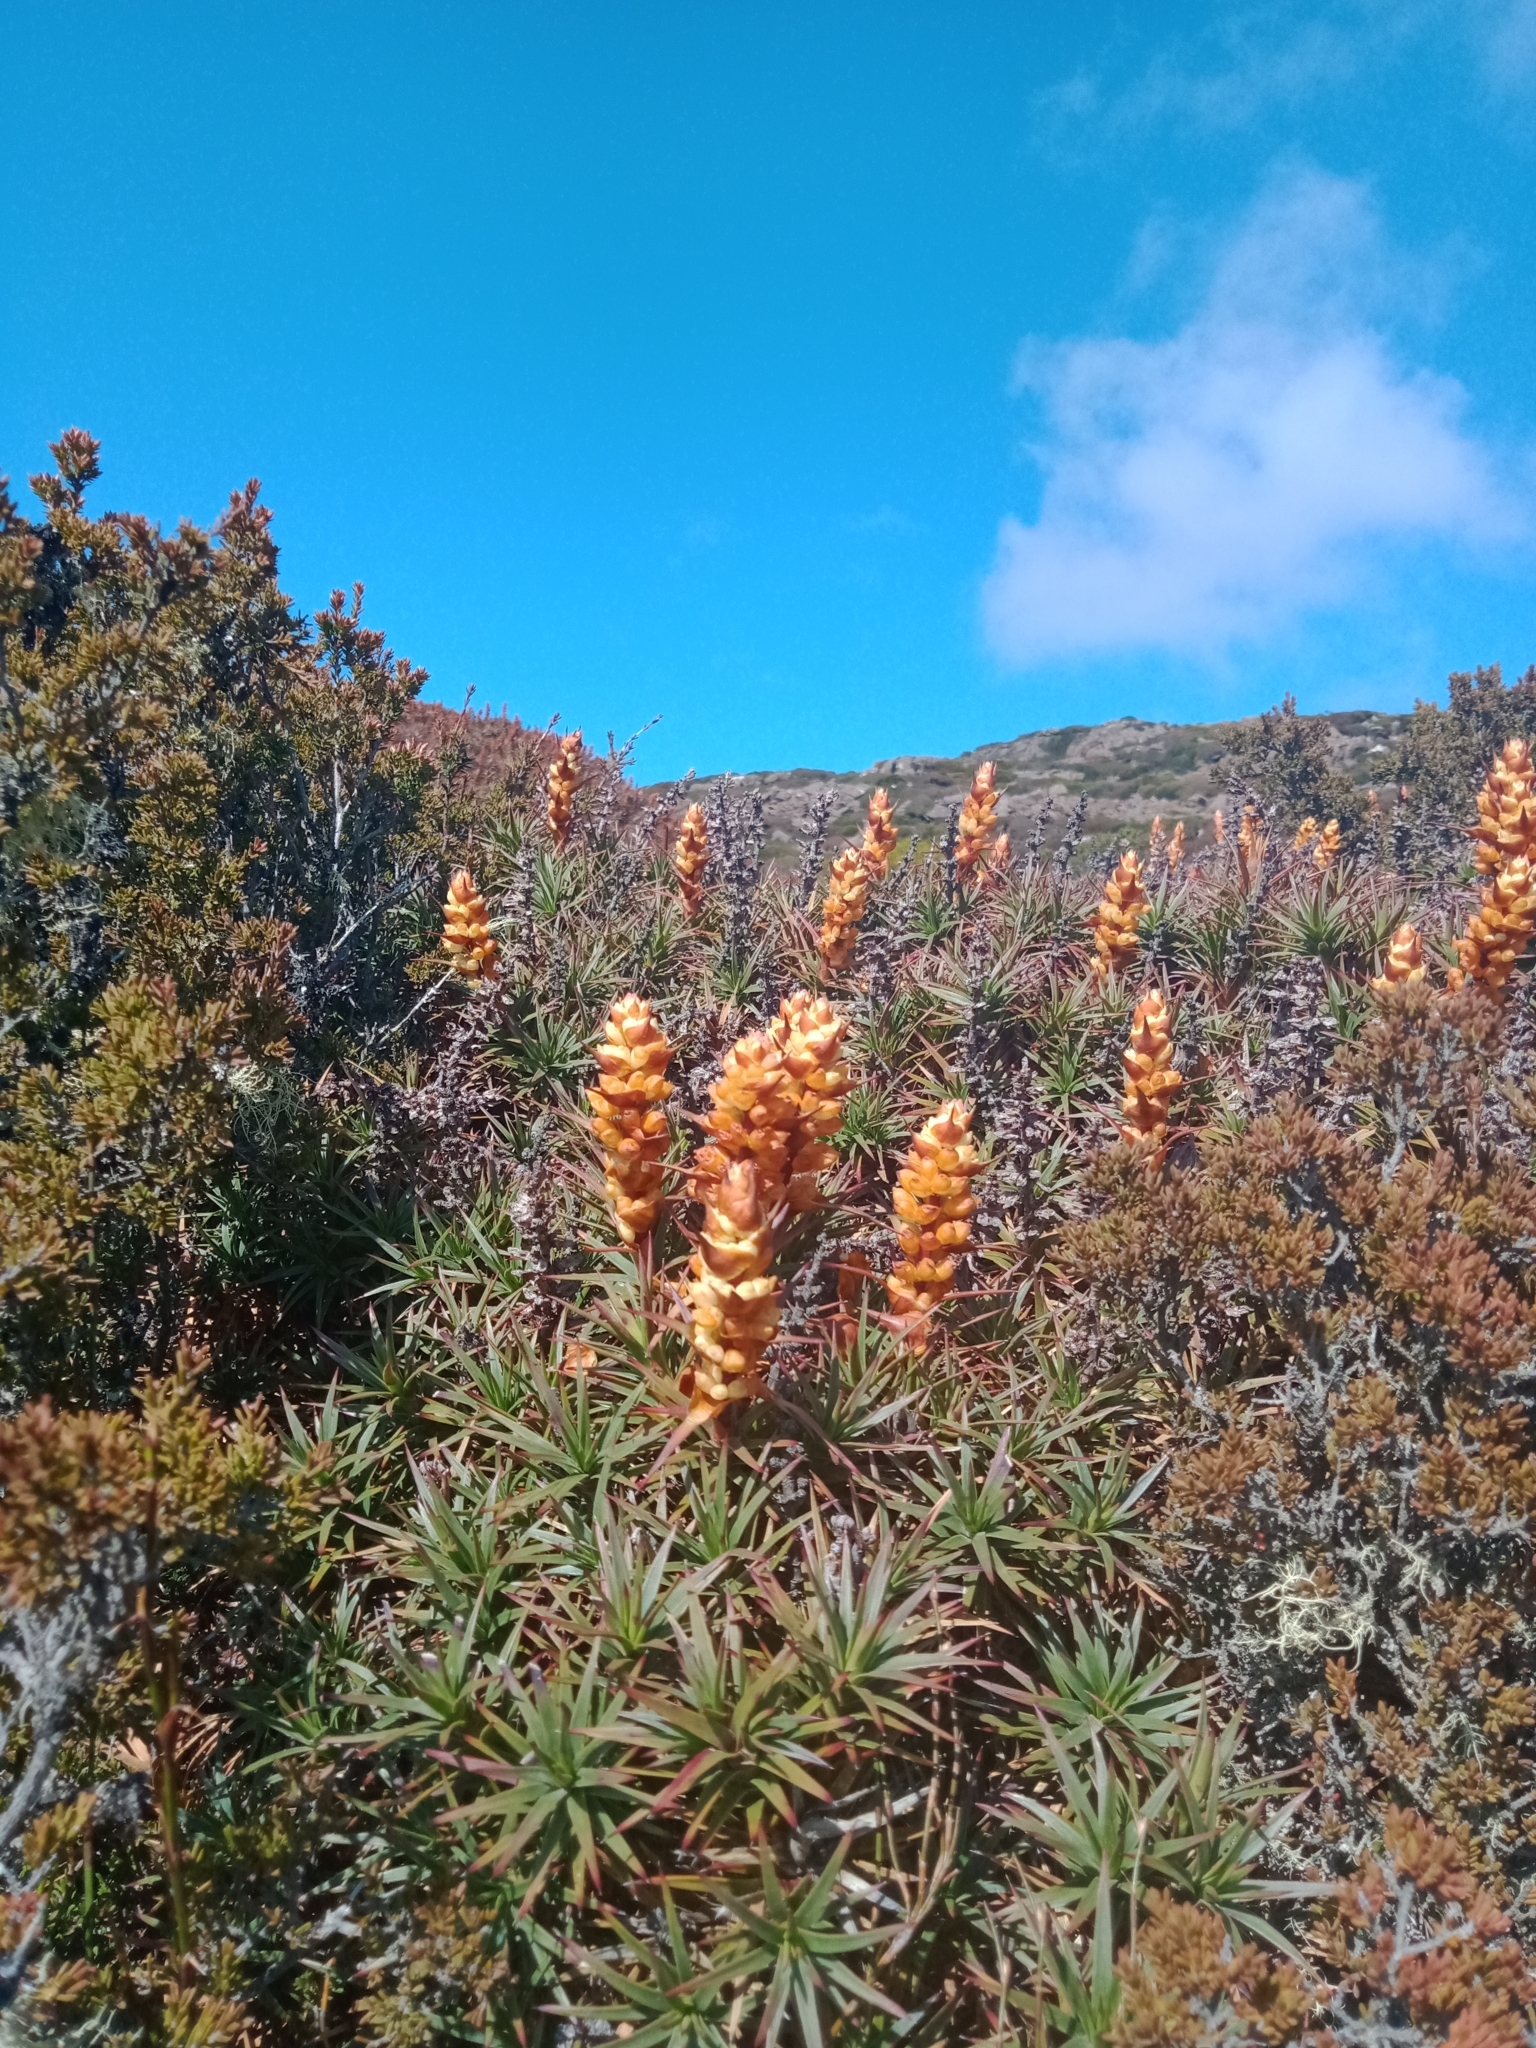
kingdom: Plantae
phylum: Tracheophyta
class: Magnoliopsida
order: Ericales
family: Ericaceae
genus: Dracophyllum
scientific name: Dracophyllum persistentifolium
